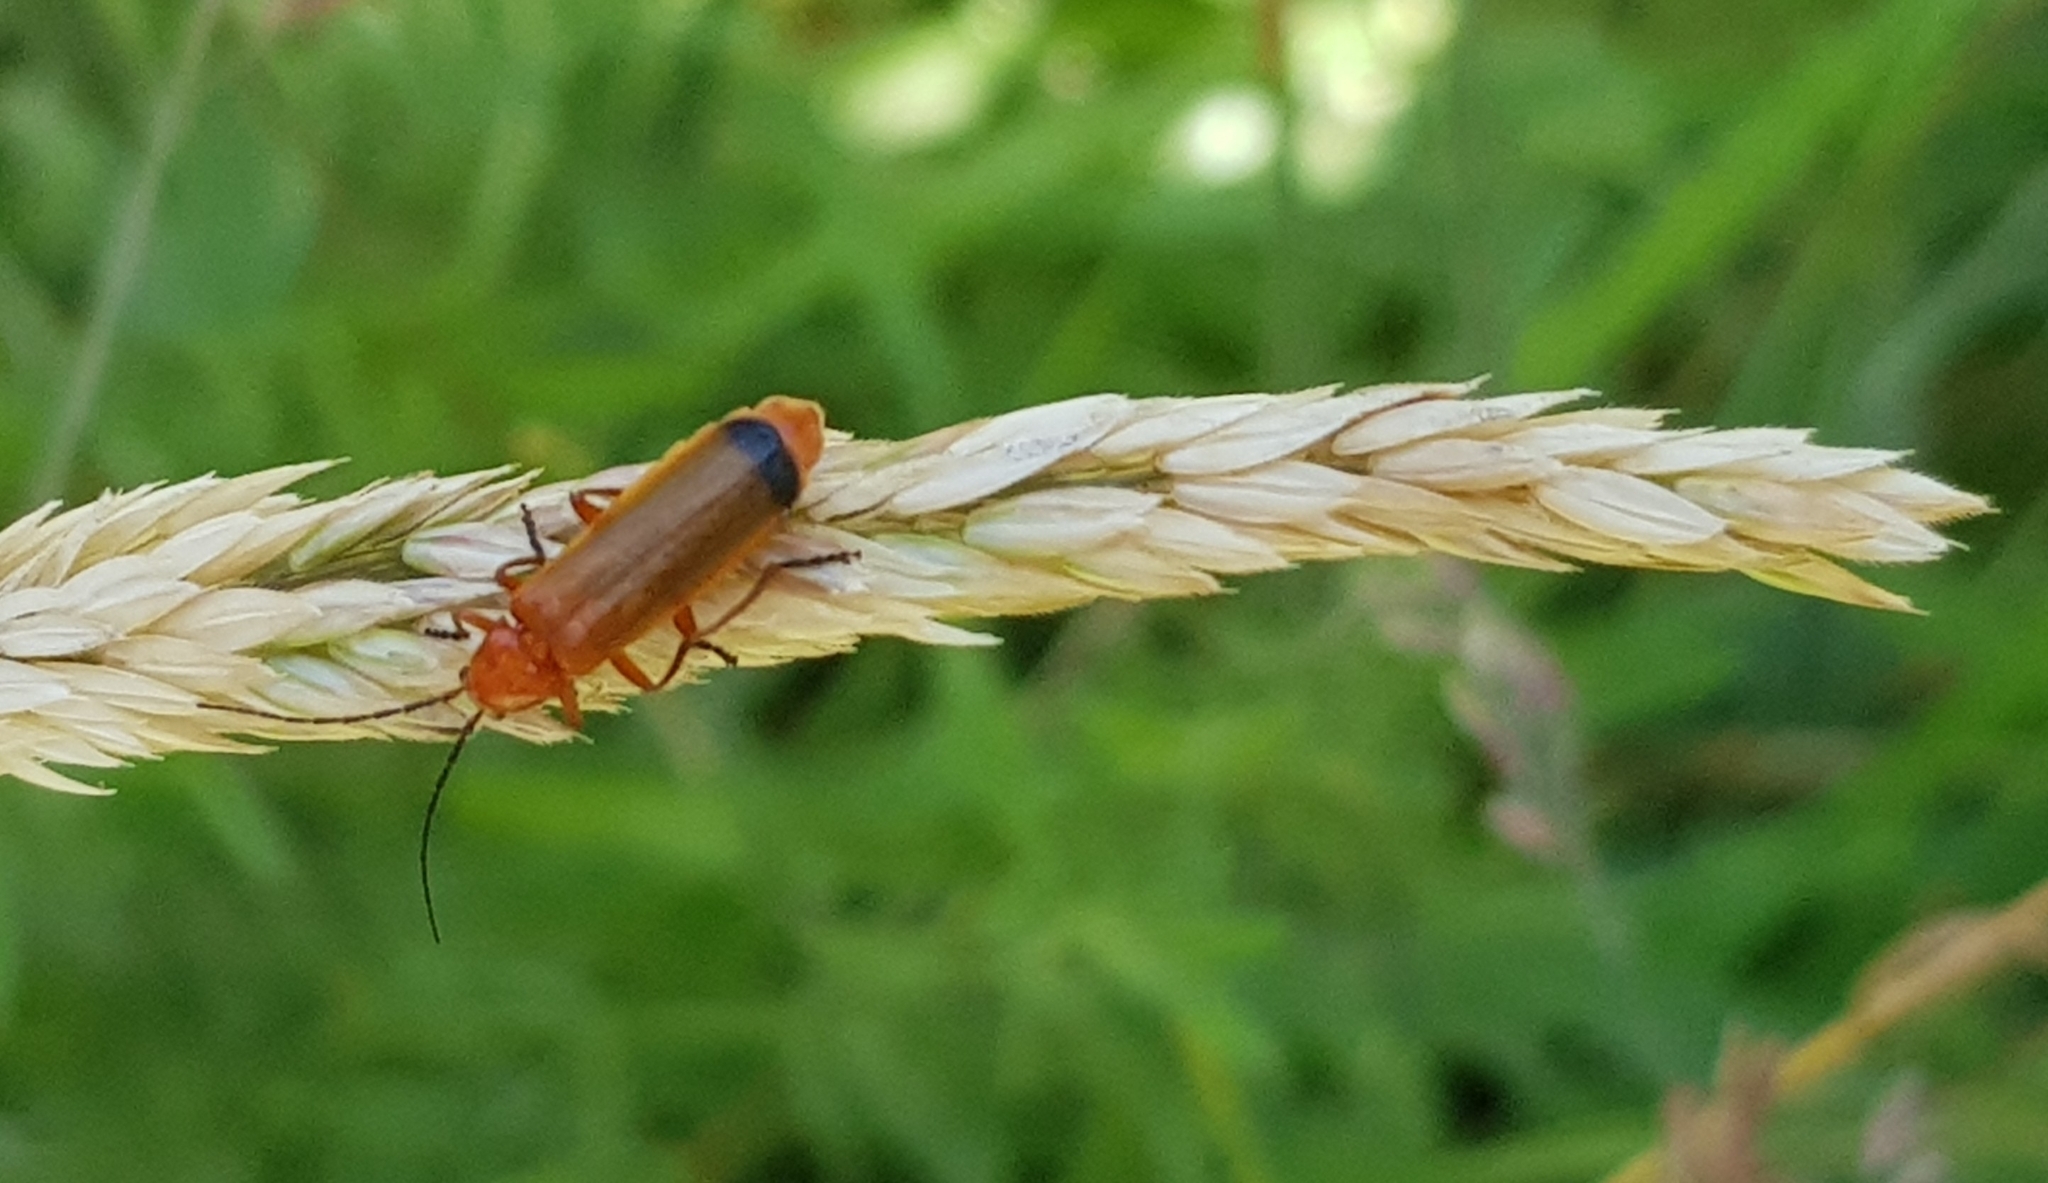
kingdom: Animalia
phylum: Arthropoda
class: Insecta
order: Coleoptera
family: Cantharidae
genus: Rhagonycha
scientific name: Rhagonycha fulva
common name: Common red soldier beetle
